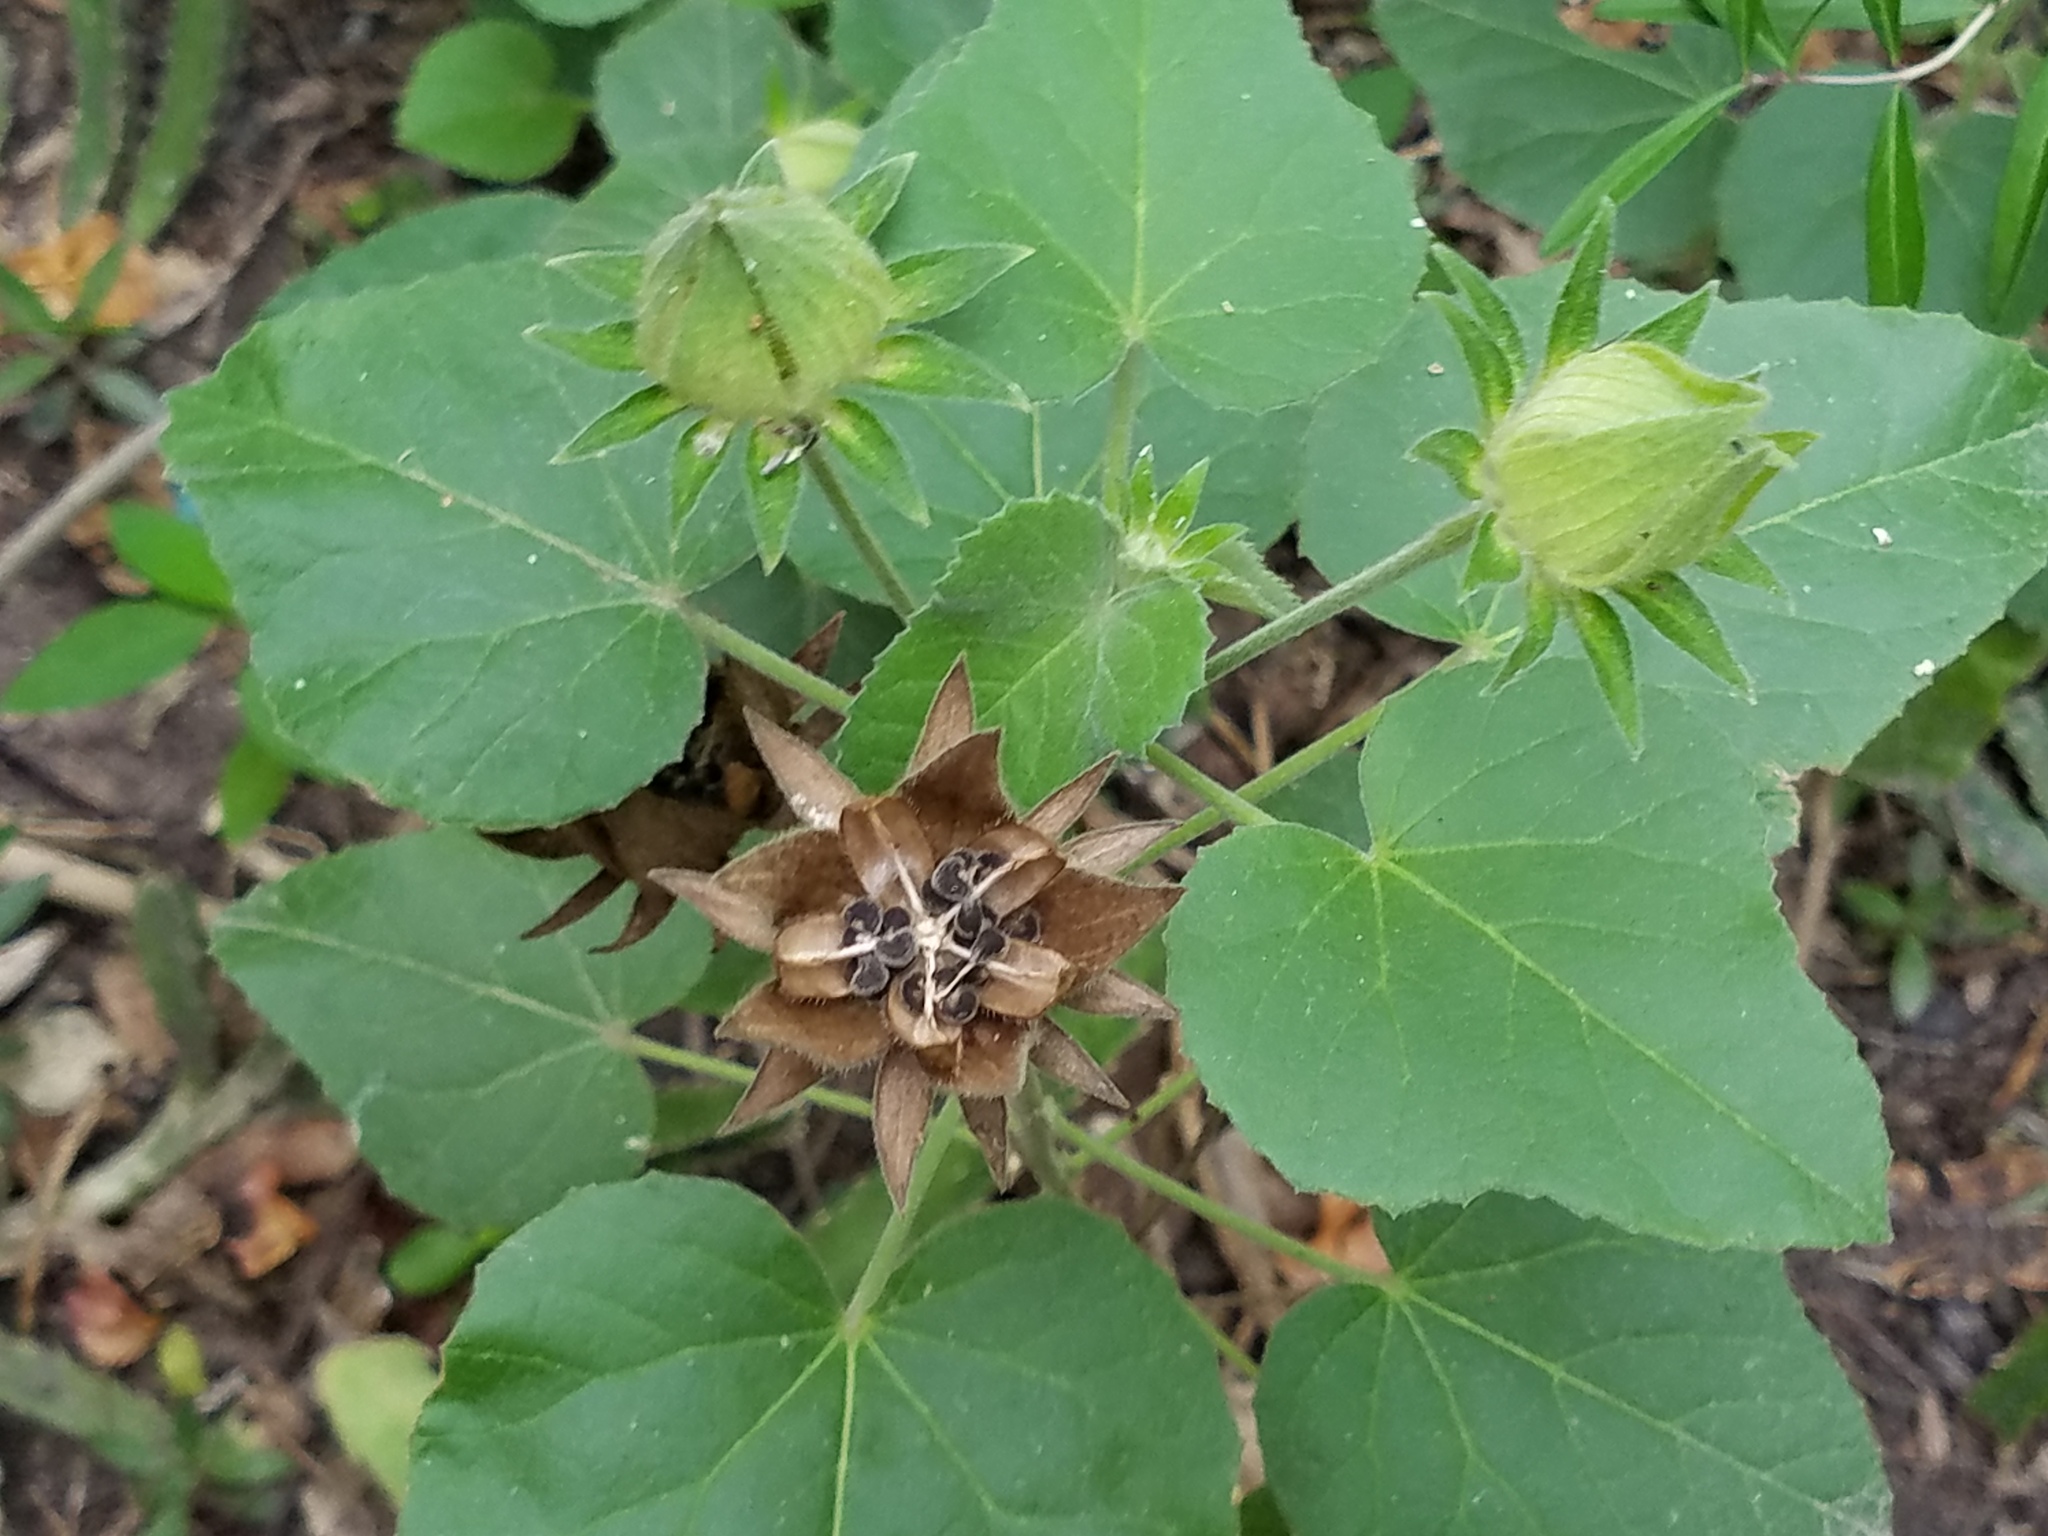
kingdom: Plantae
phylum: Tracheophyta
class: Magnoliopsida
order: Malvales
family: Malvaceae
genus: Hibiscus
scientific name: Hibiscus martianus
